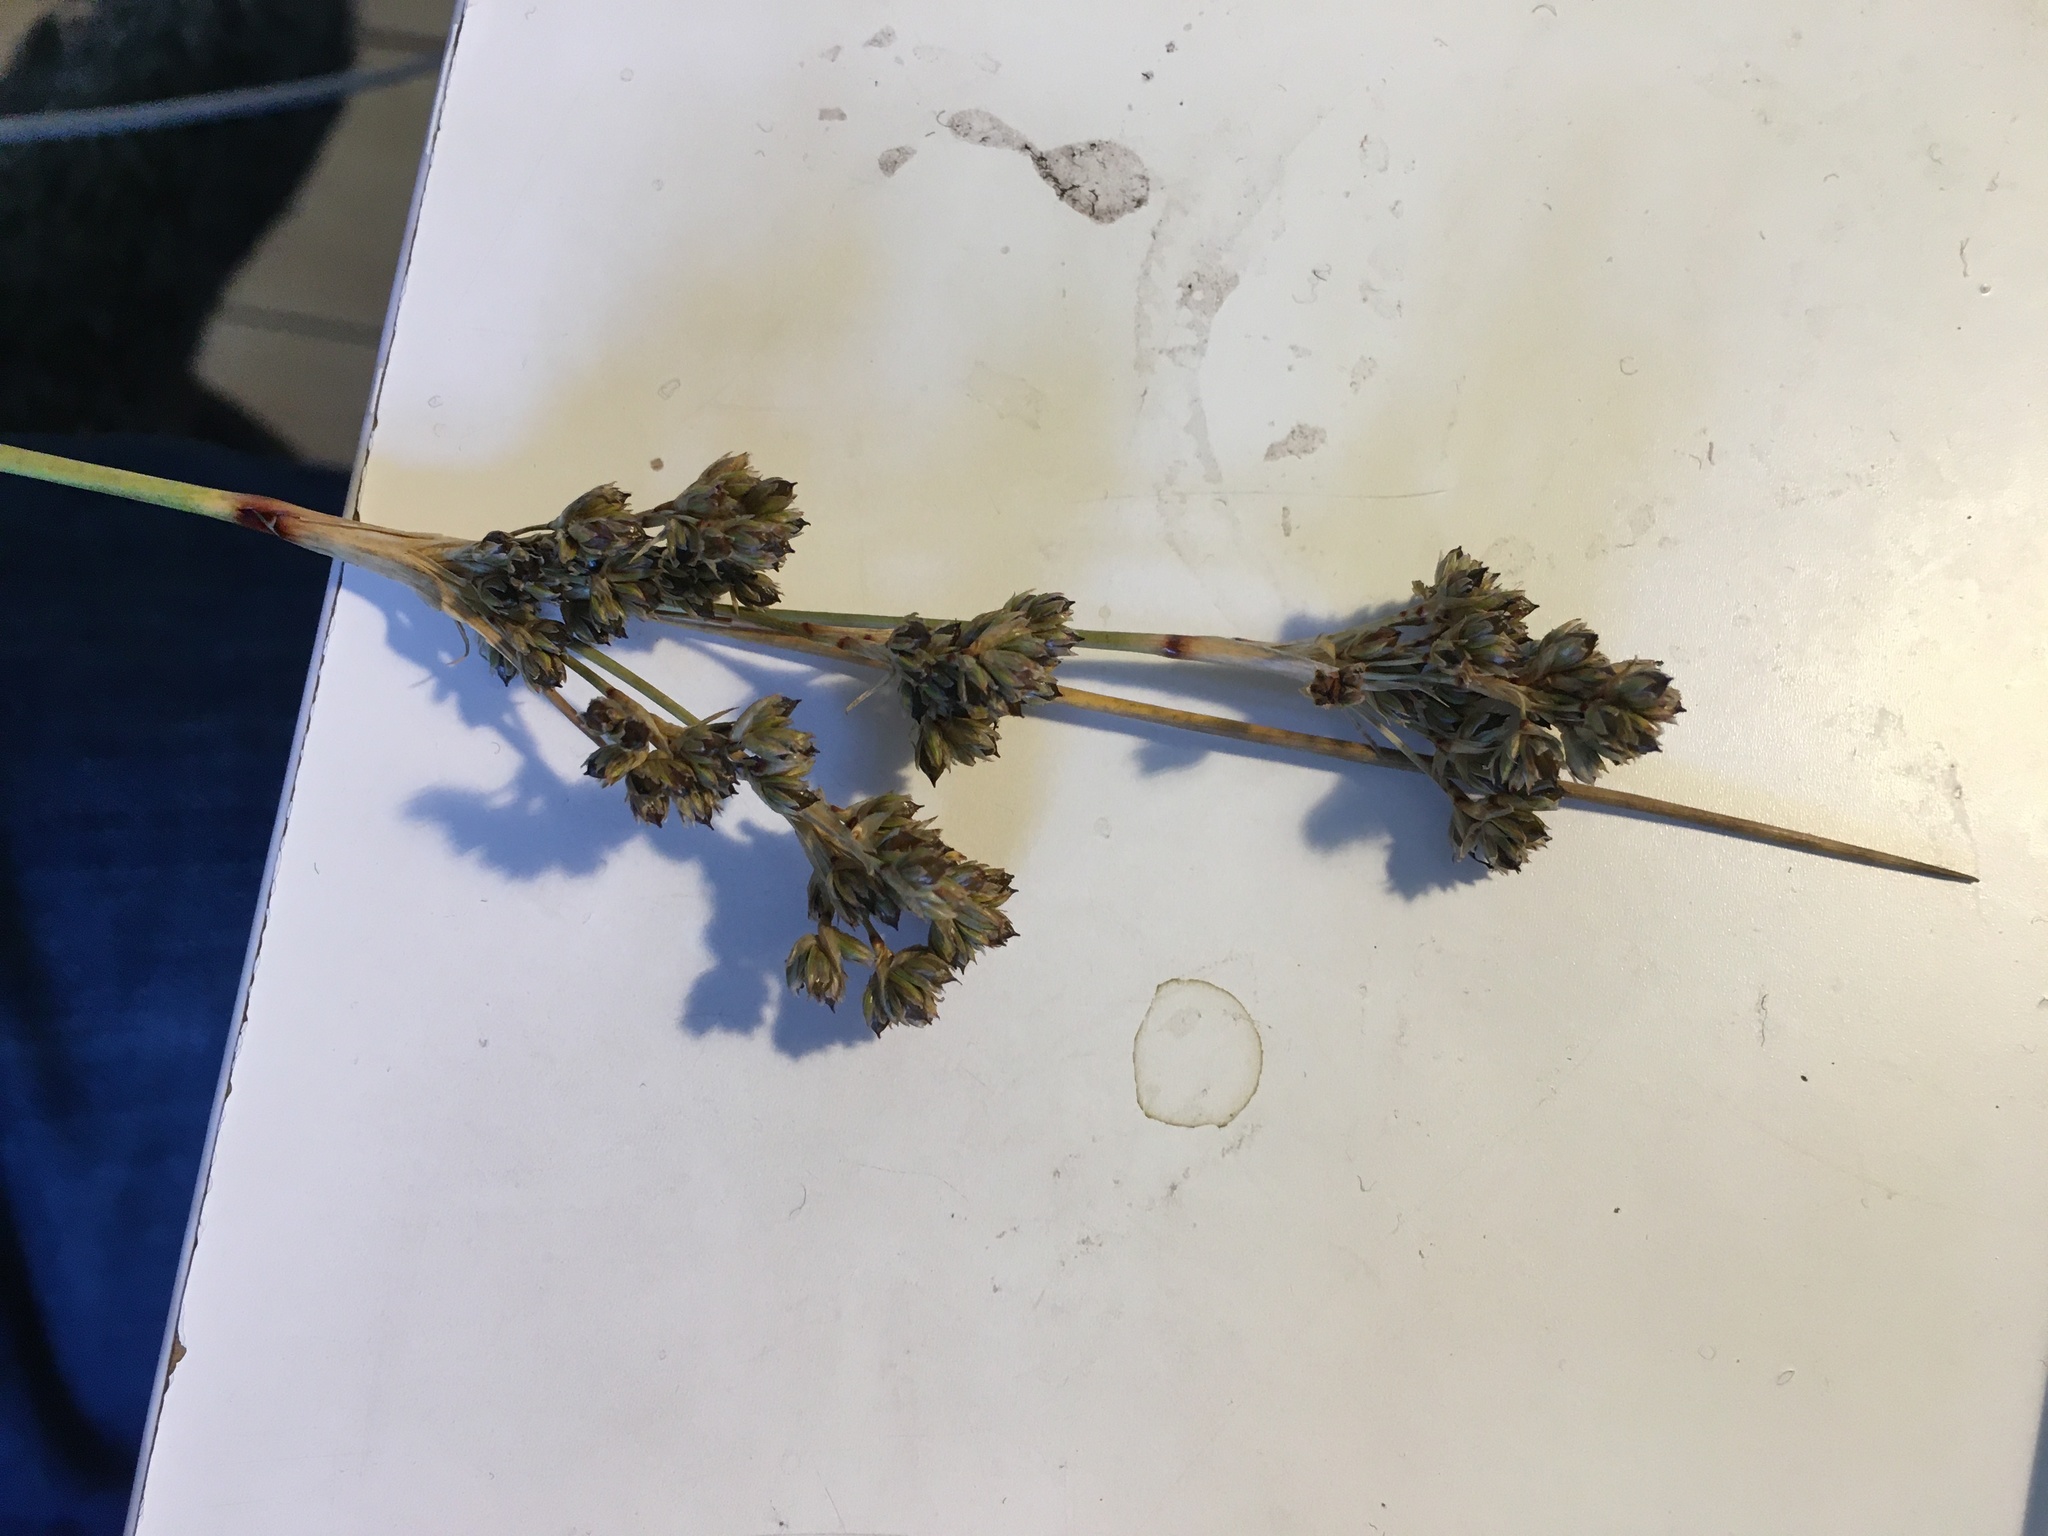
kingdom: Plantae
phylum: Tracheophyta
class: Liliopsida
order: Poales
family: Juncaceae
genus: Juncus
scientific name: Juncus maritimus
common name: Sea rush
